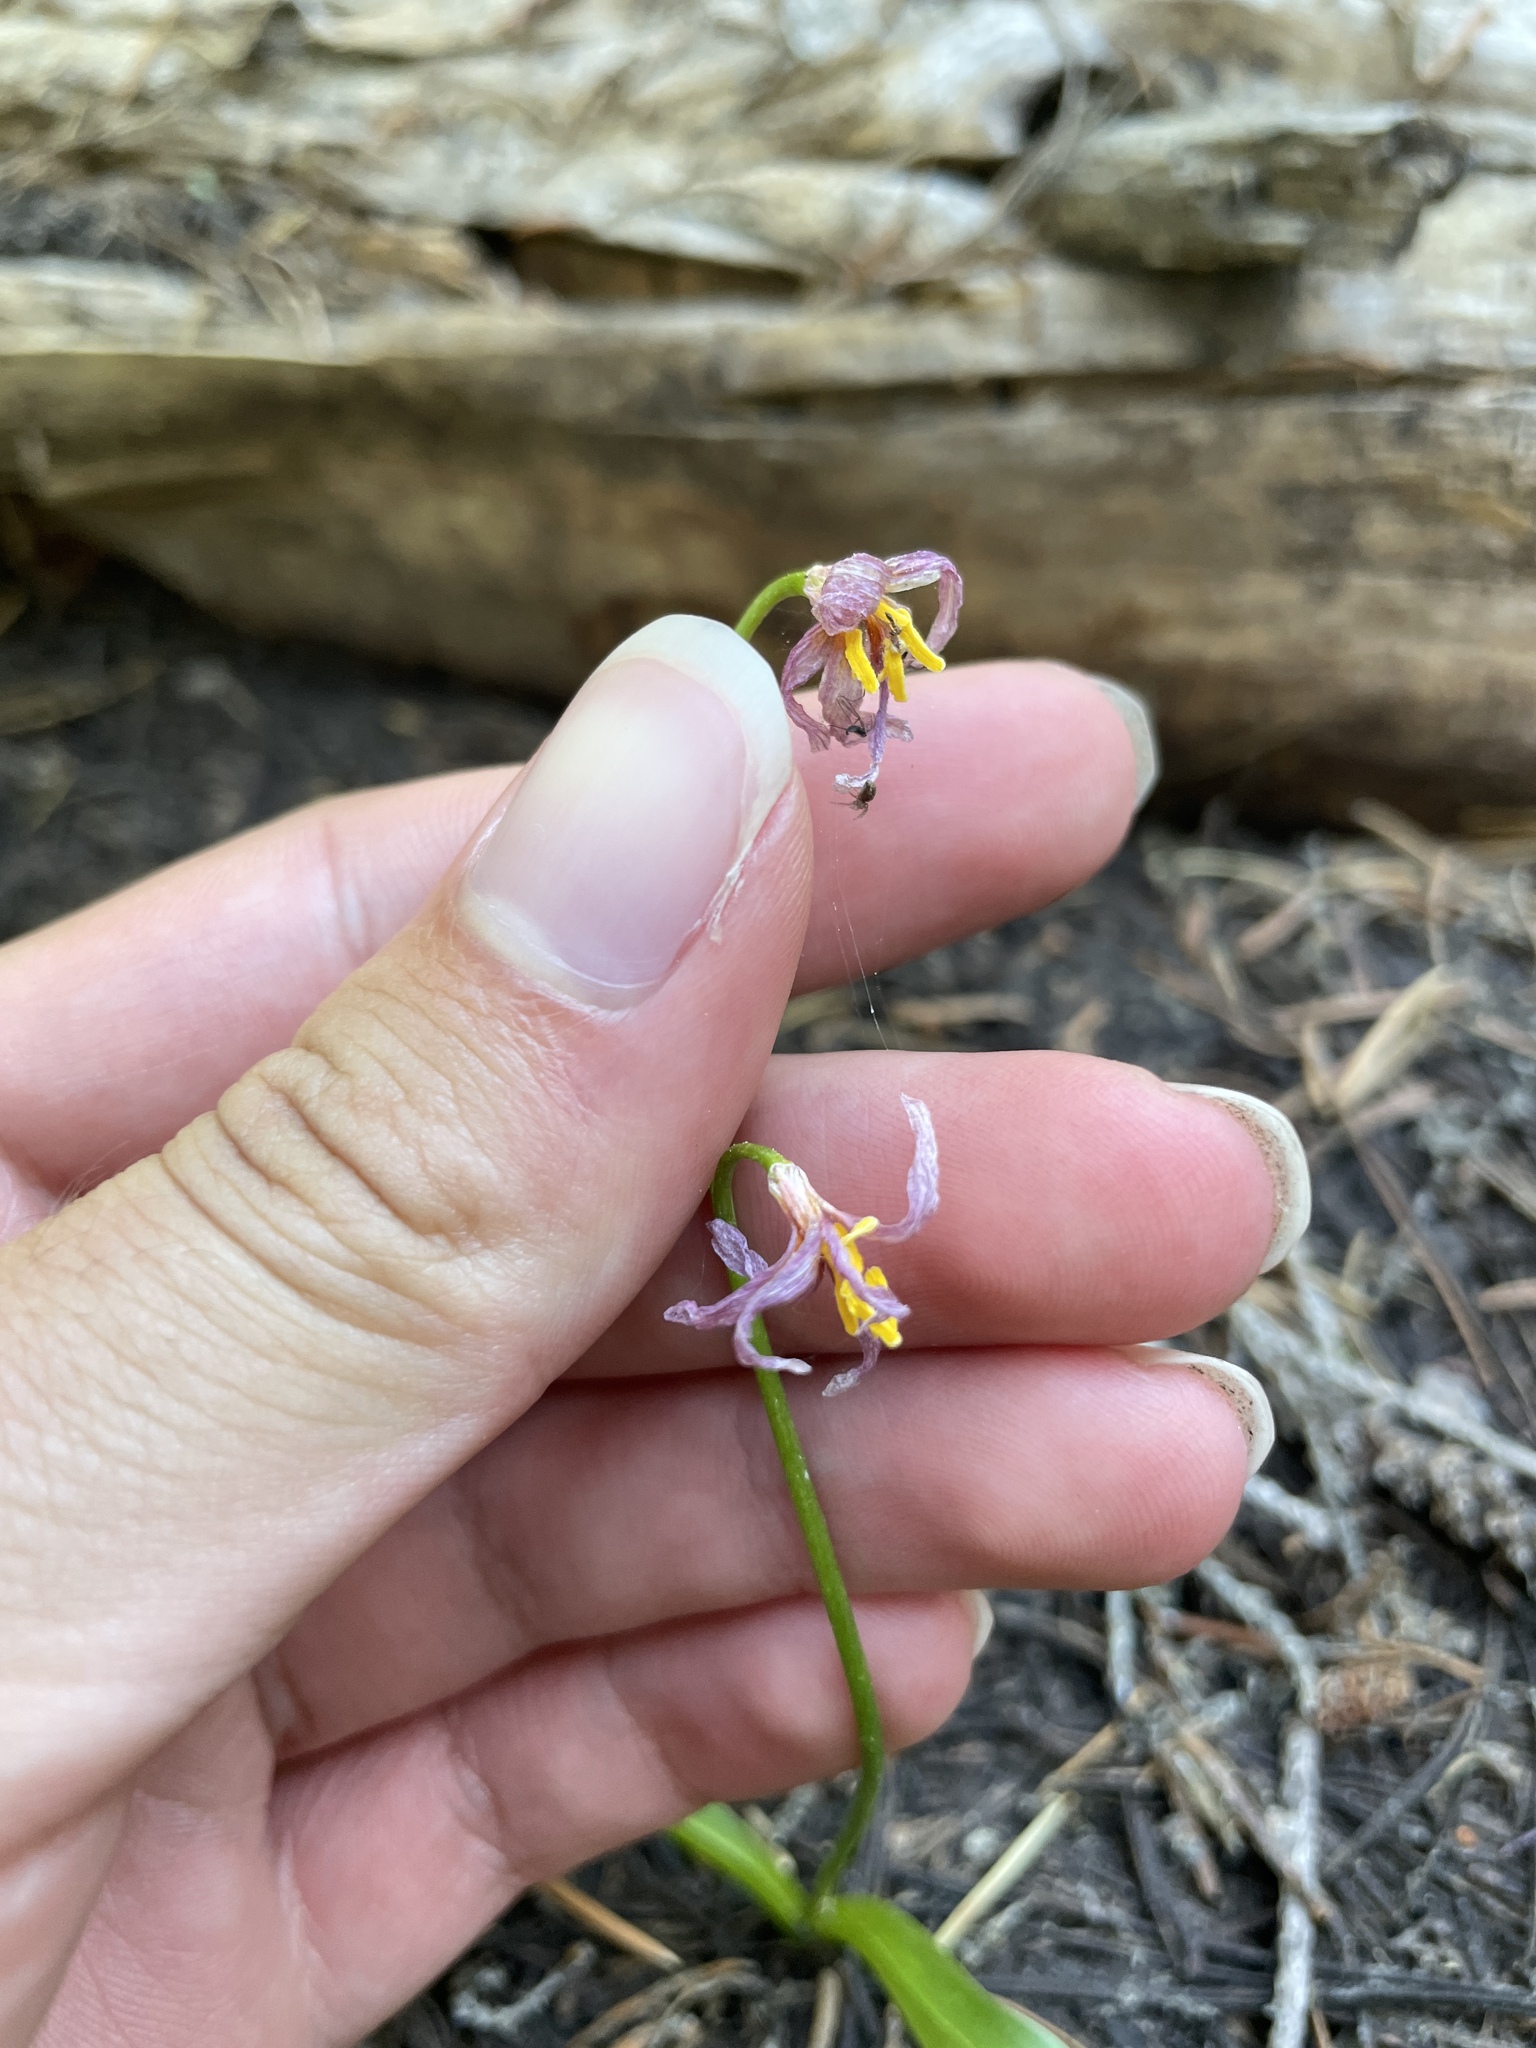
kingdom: Plantae
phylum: Tracheophyta
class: Liliopsida
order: Liliales
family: Liliaceae
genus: Erythronium
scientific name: Erythronium purpurascens
